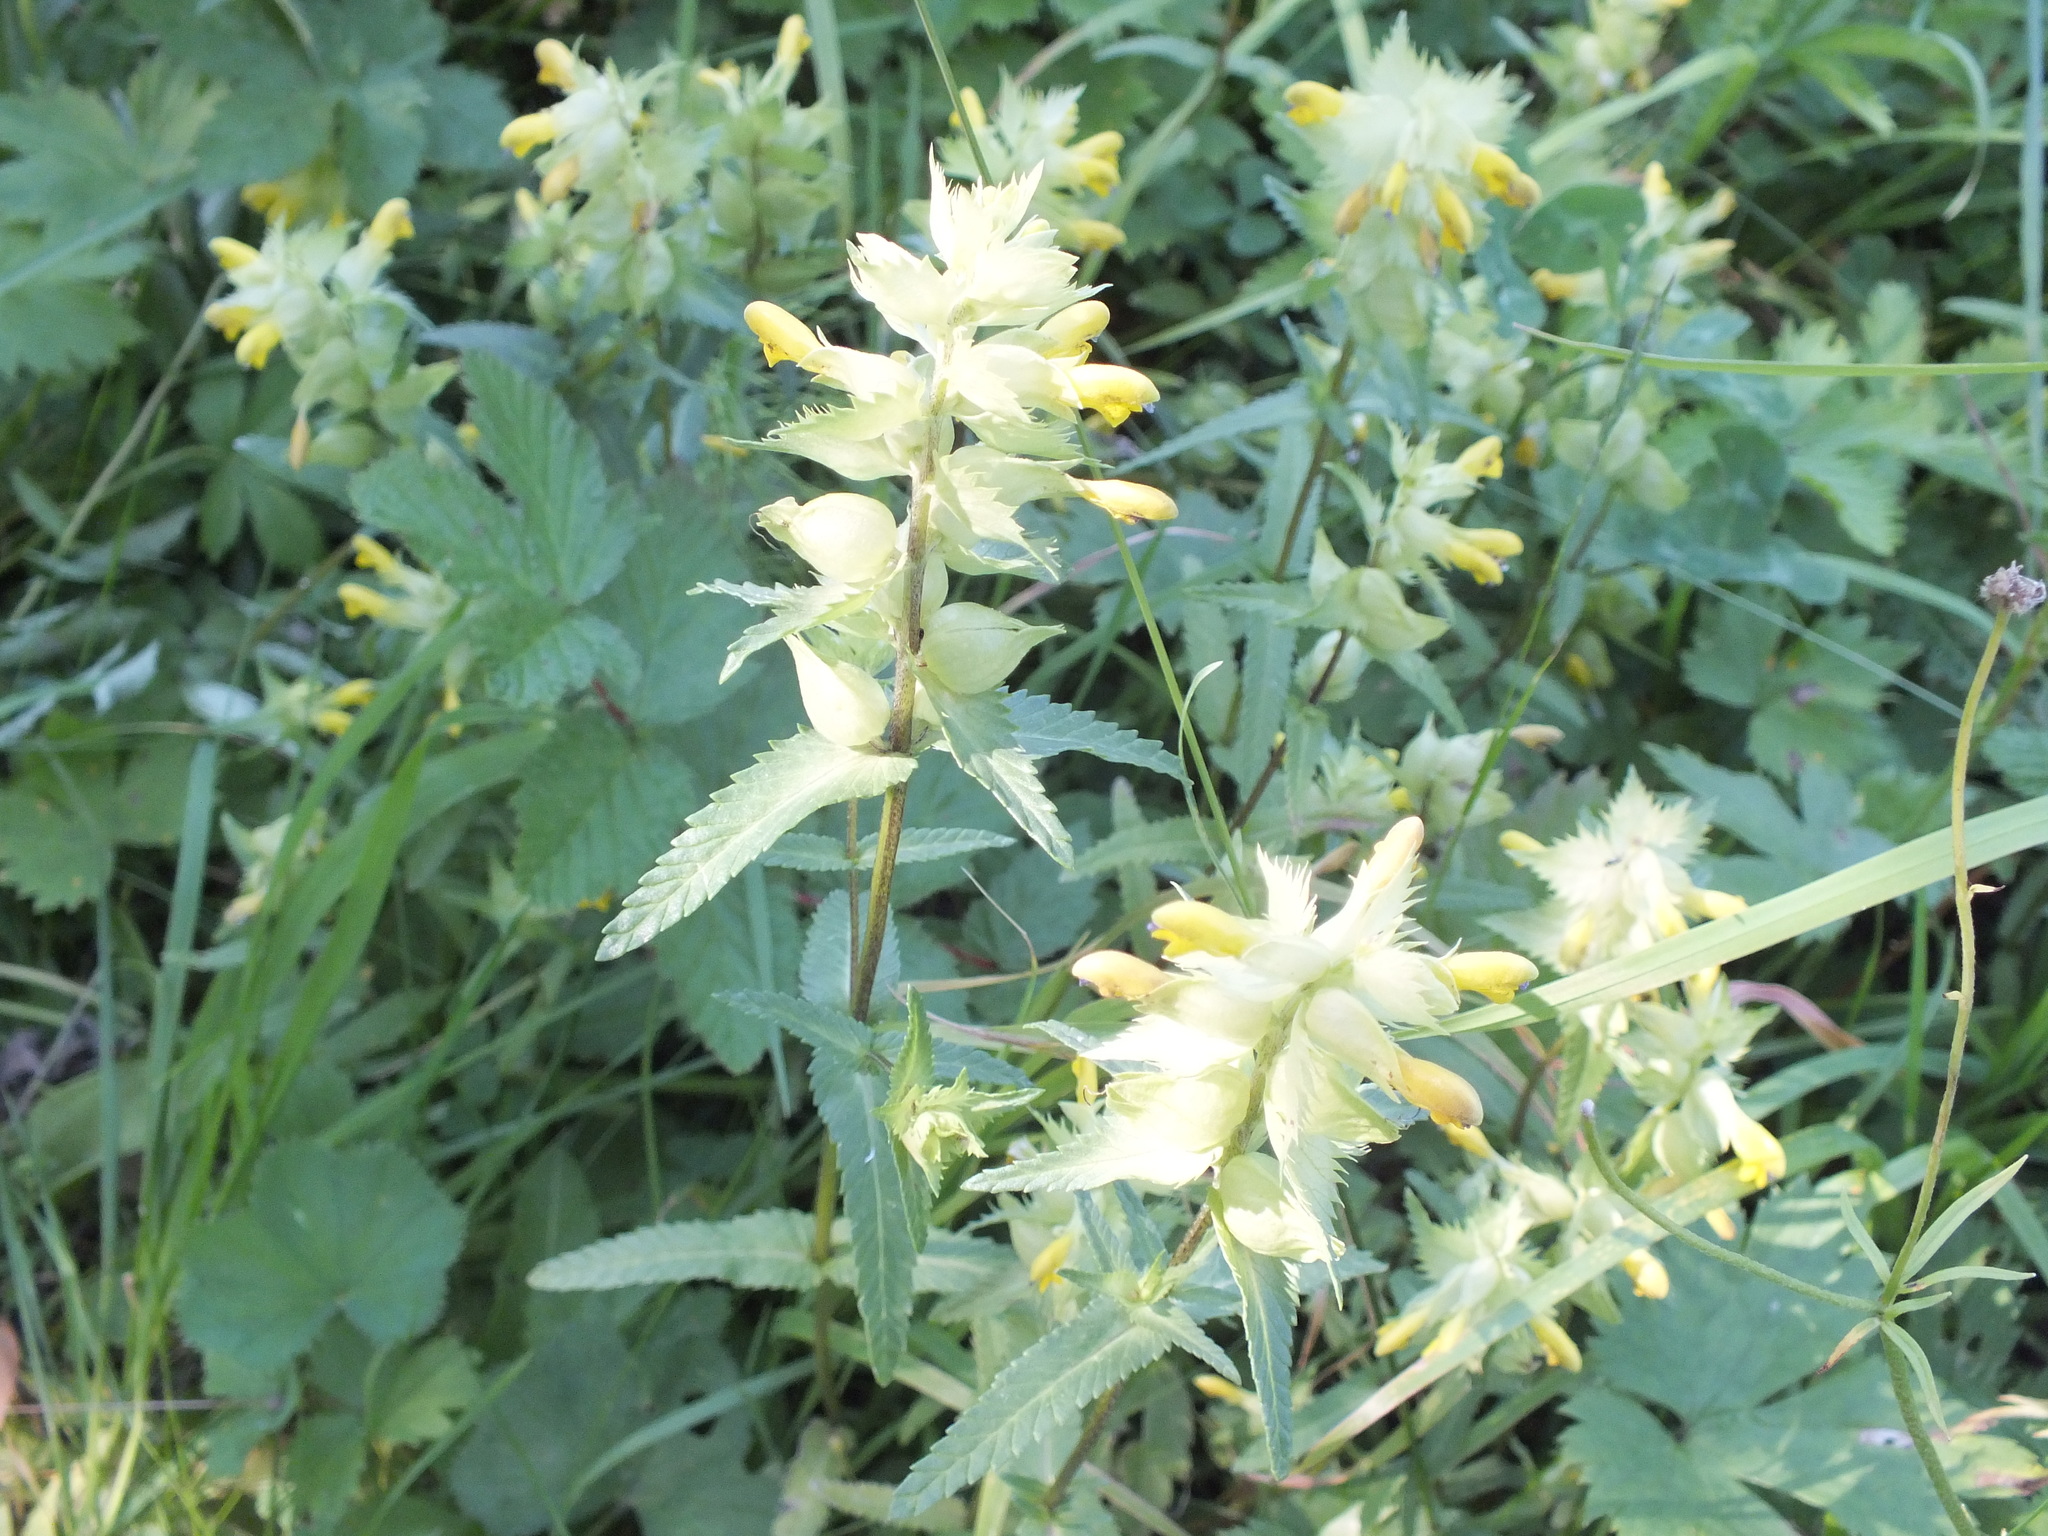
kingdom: Plantae
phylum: Tracheophyta
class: Magnoliopsida
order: Lamiales
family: Orobanchaceae
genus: Rhinanthus
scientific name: Rhinanthus serotinus
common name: Late-flowering yellow rattle
